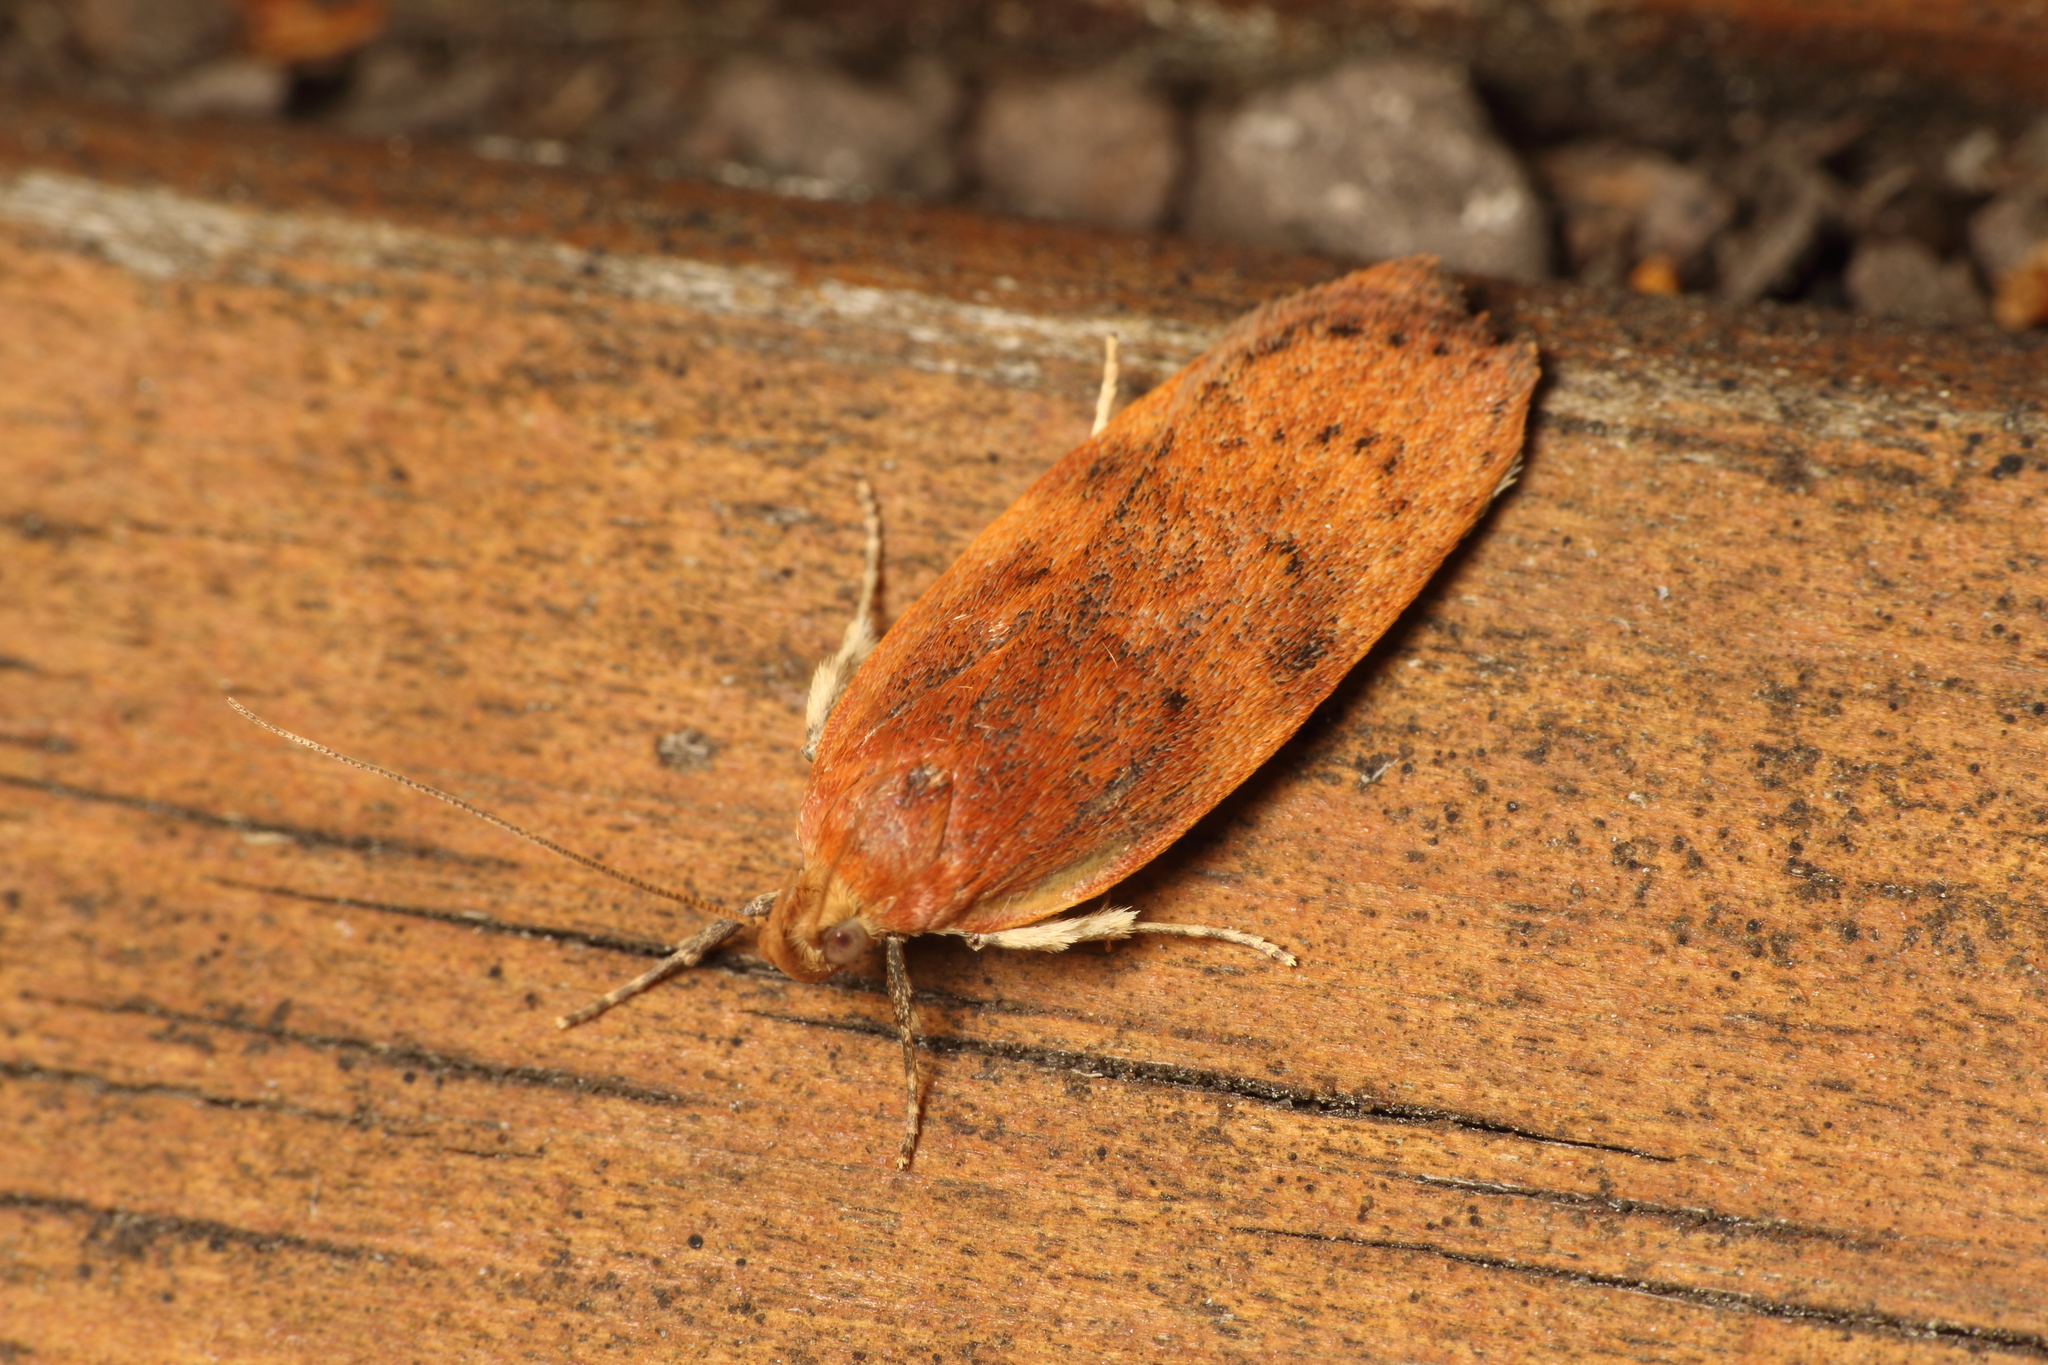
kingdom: Animalia
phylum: Arthropoda
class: Insecta
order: Lepidoptera
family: Depressariidae
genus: Phaeosaces
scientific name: Phaeosaces coarctatella
